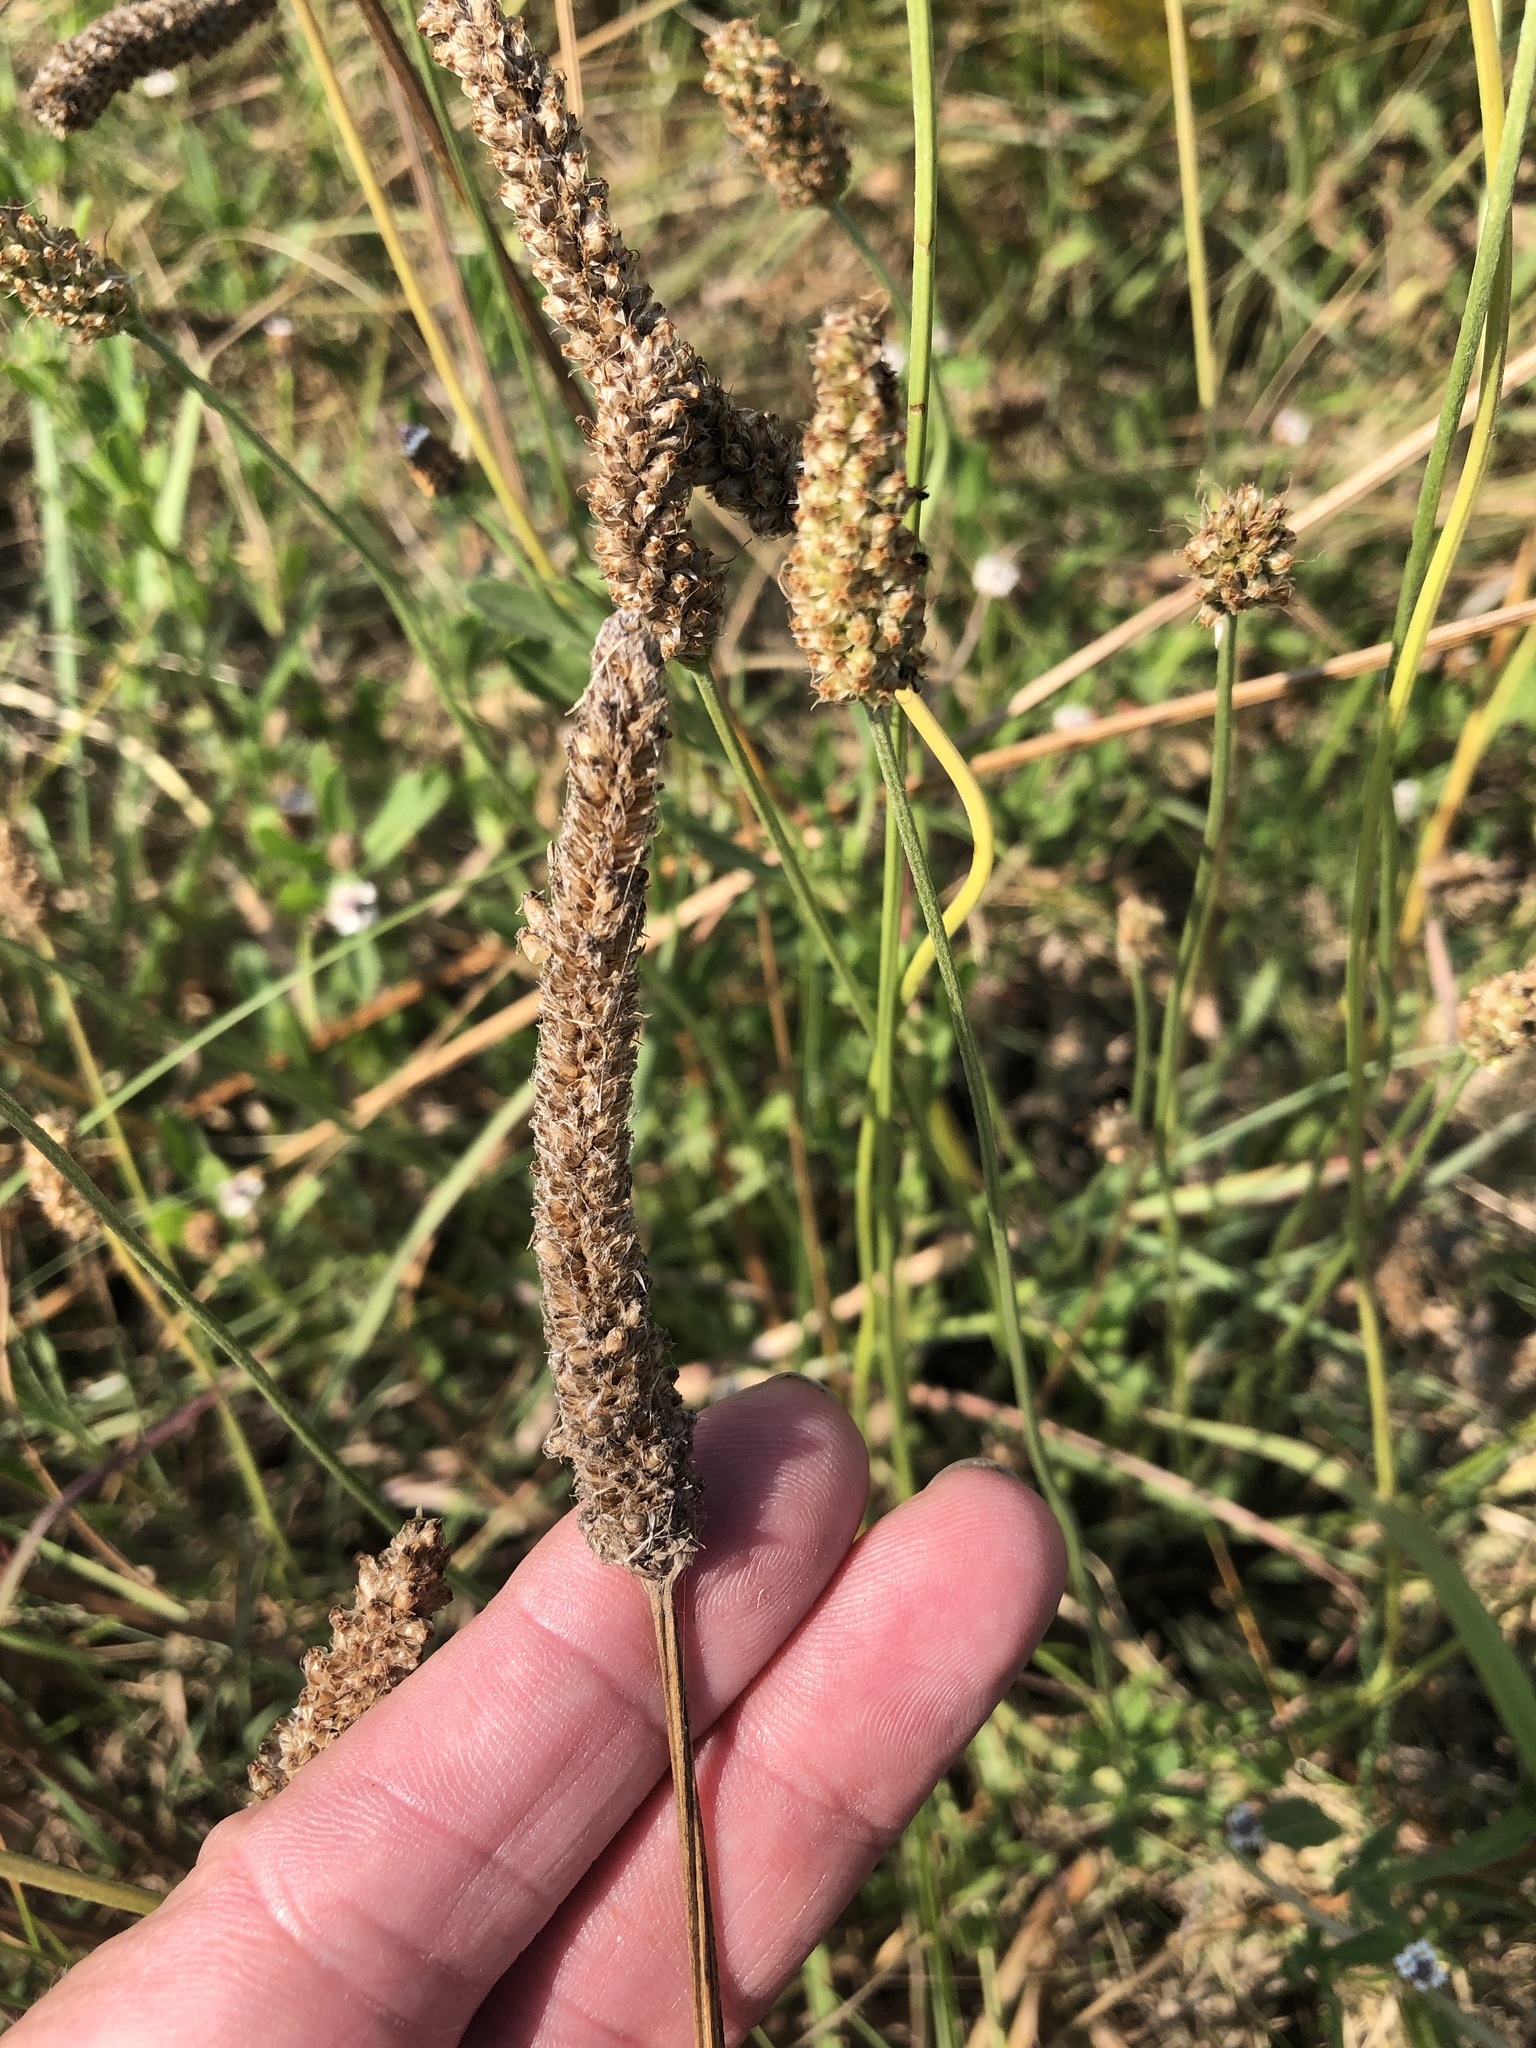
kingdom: Plantae
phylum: Tracheophyta
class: Magnoliopsida
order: Lamiales
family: Plantaginaceae
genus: Plantago
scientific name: Plantago lanceolata
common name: Ribwort plantain
